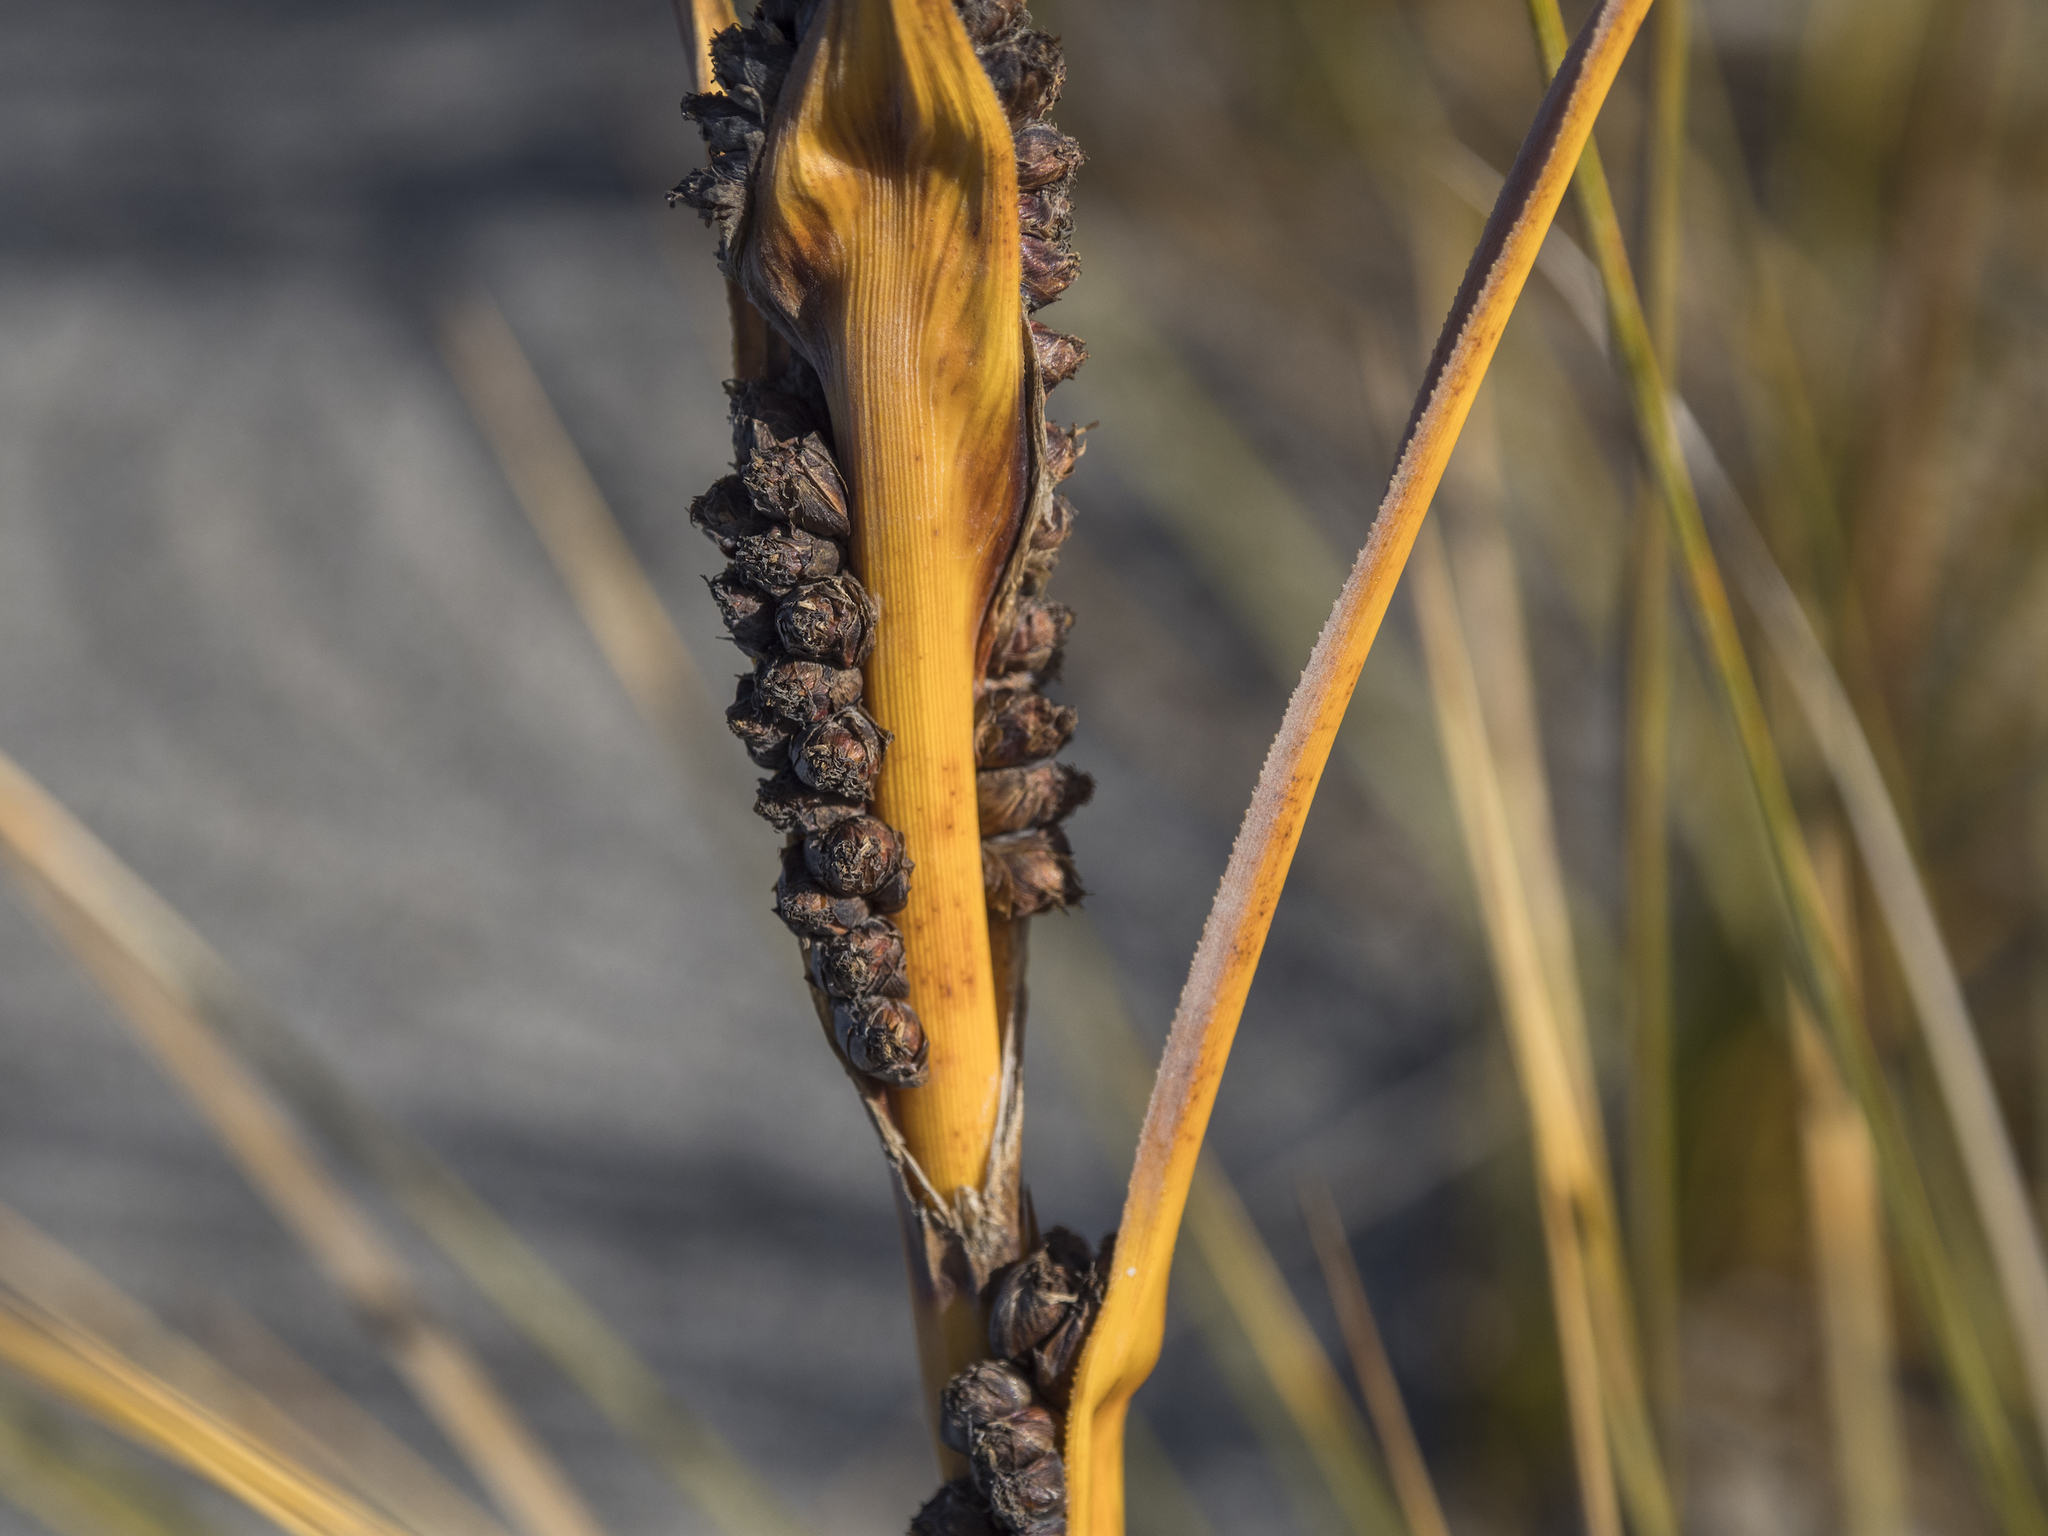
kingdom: Plantae
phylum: Tracheophyta
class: Liliopsida
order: Poales
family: Cyperaceae
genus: Ficinia
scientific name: Ficinia spiralis
